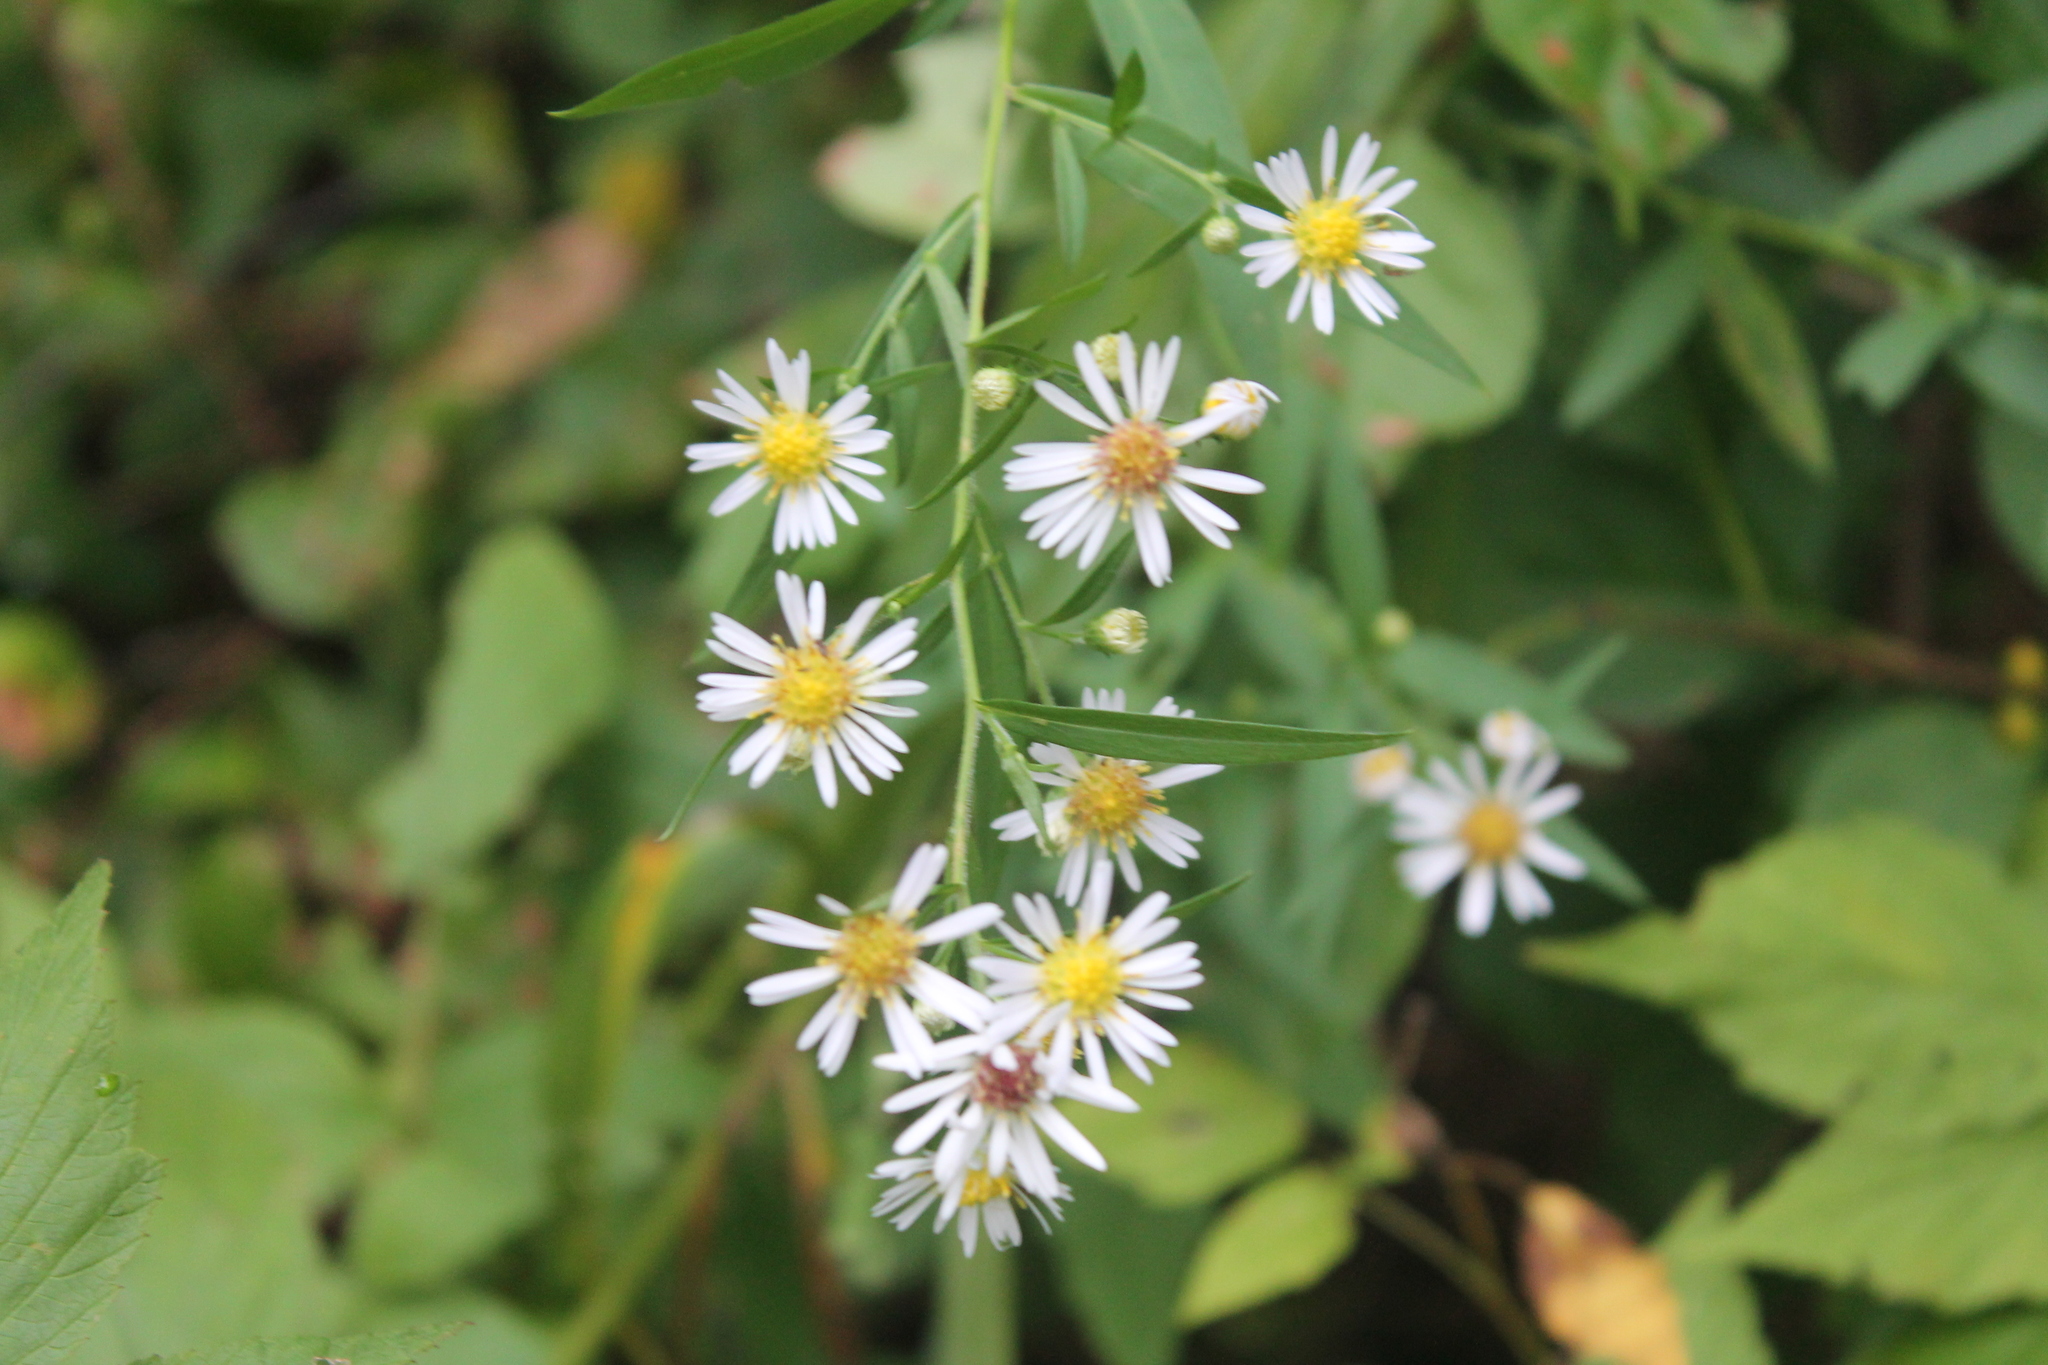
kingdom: Plantae
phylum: Tracheophyta
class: Magnoliopsida
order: Asterales
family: Asteraceae
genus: Symphyotrichum
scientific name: Symphyotrichum lanceolatum
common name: Panicled aster
